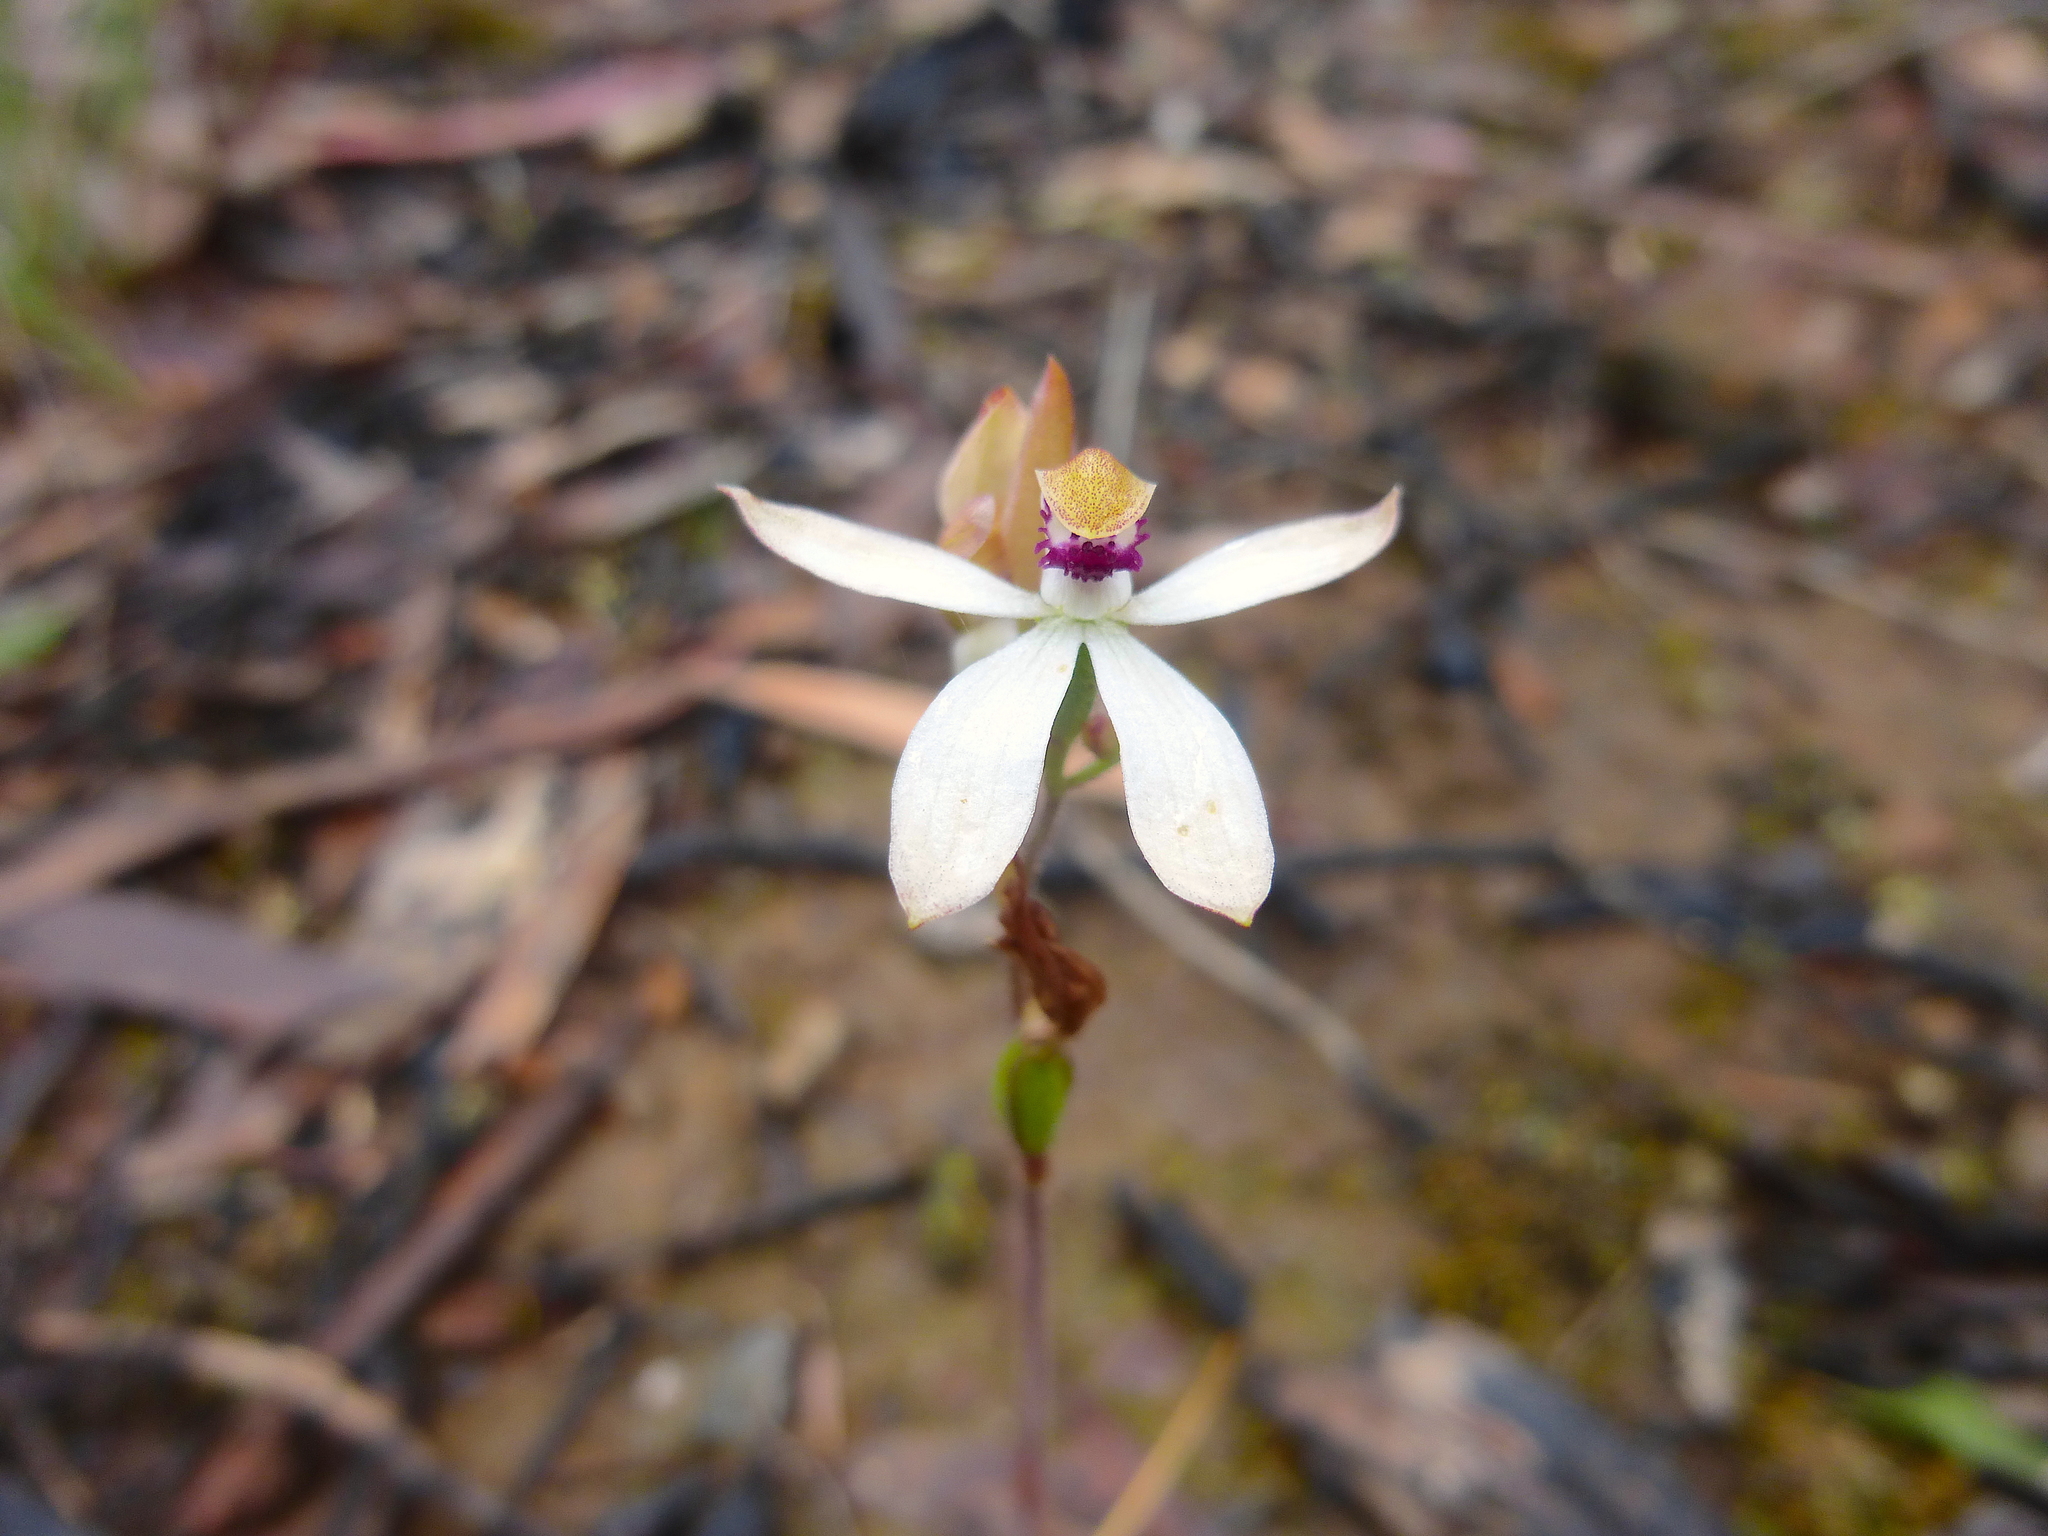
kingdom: Plantae
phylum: Tracheophyta
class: Liliopsida
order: Asparagales
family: Orchidaceae
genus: Caladenia
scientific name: Caladenia cucullata
